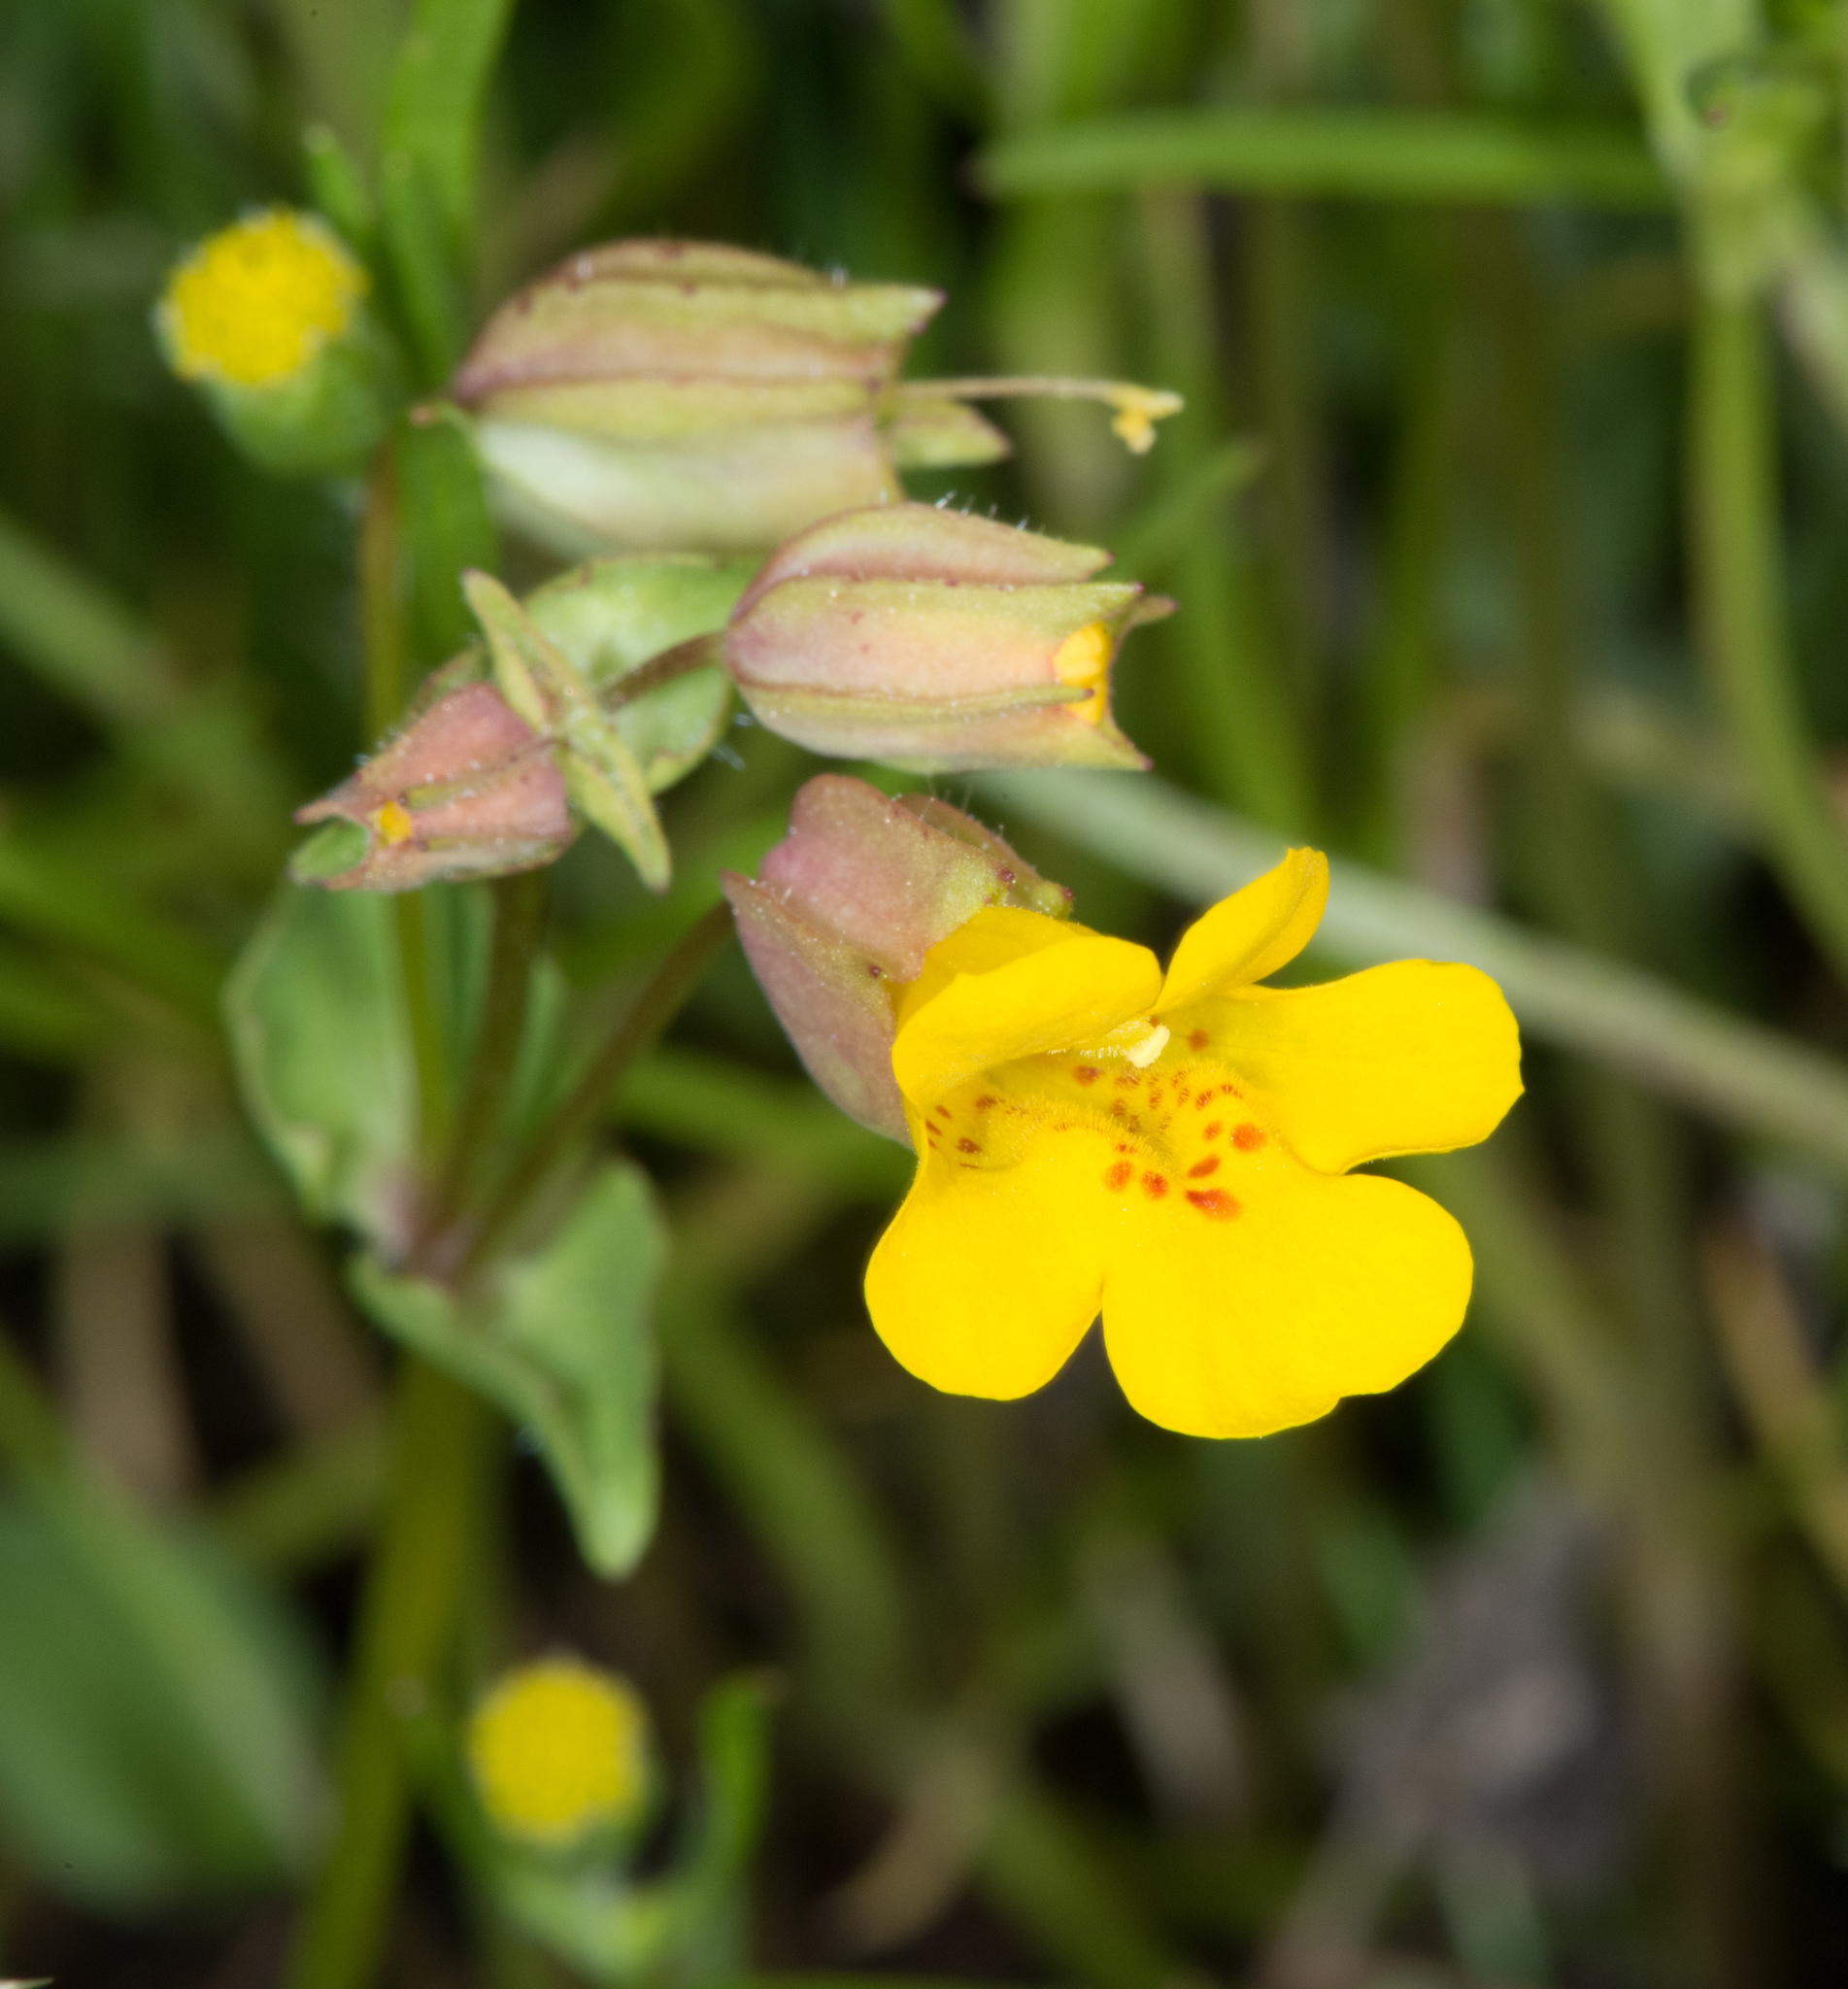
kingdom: Plantae
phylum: Tracheophyta
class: Magnoliopsida
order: Lamiales
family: Phrymaceae
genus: Erythranthe
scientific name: Erythranthe guttata
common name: Monkeyflower
